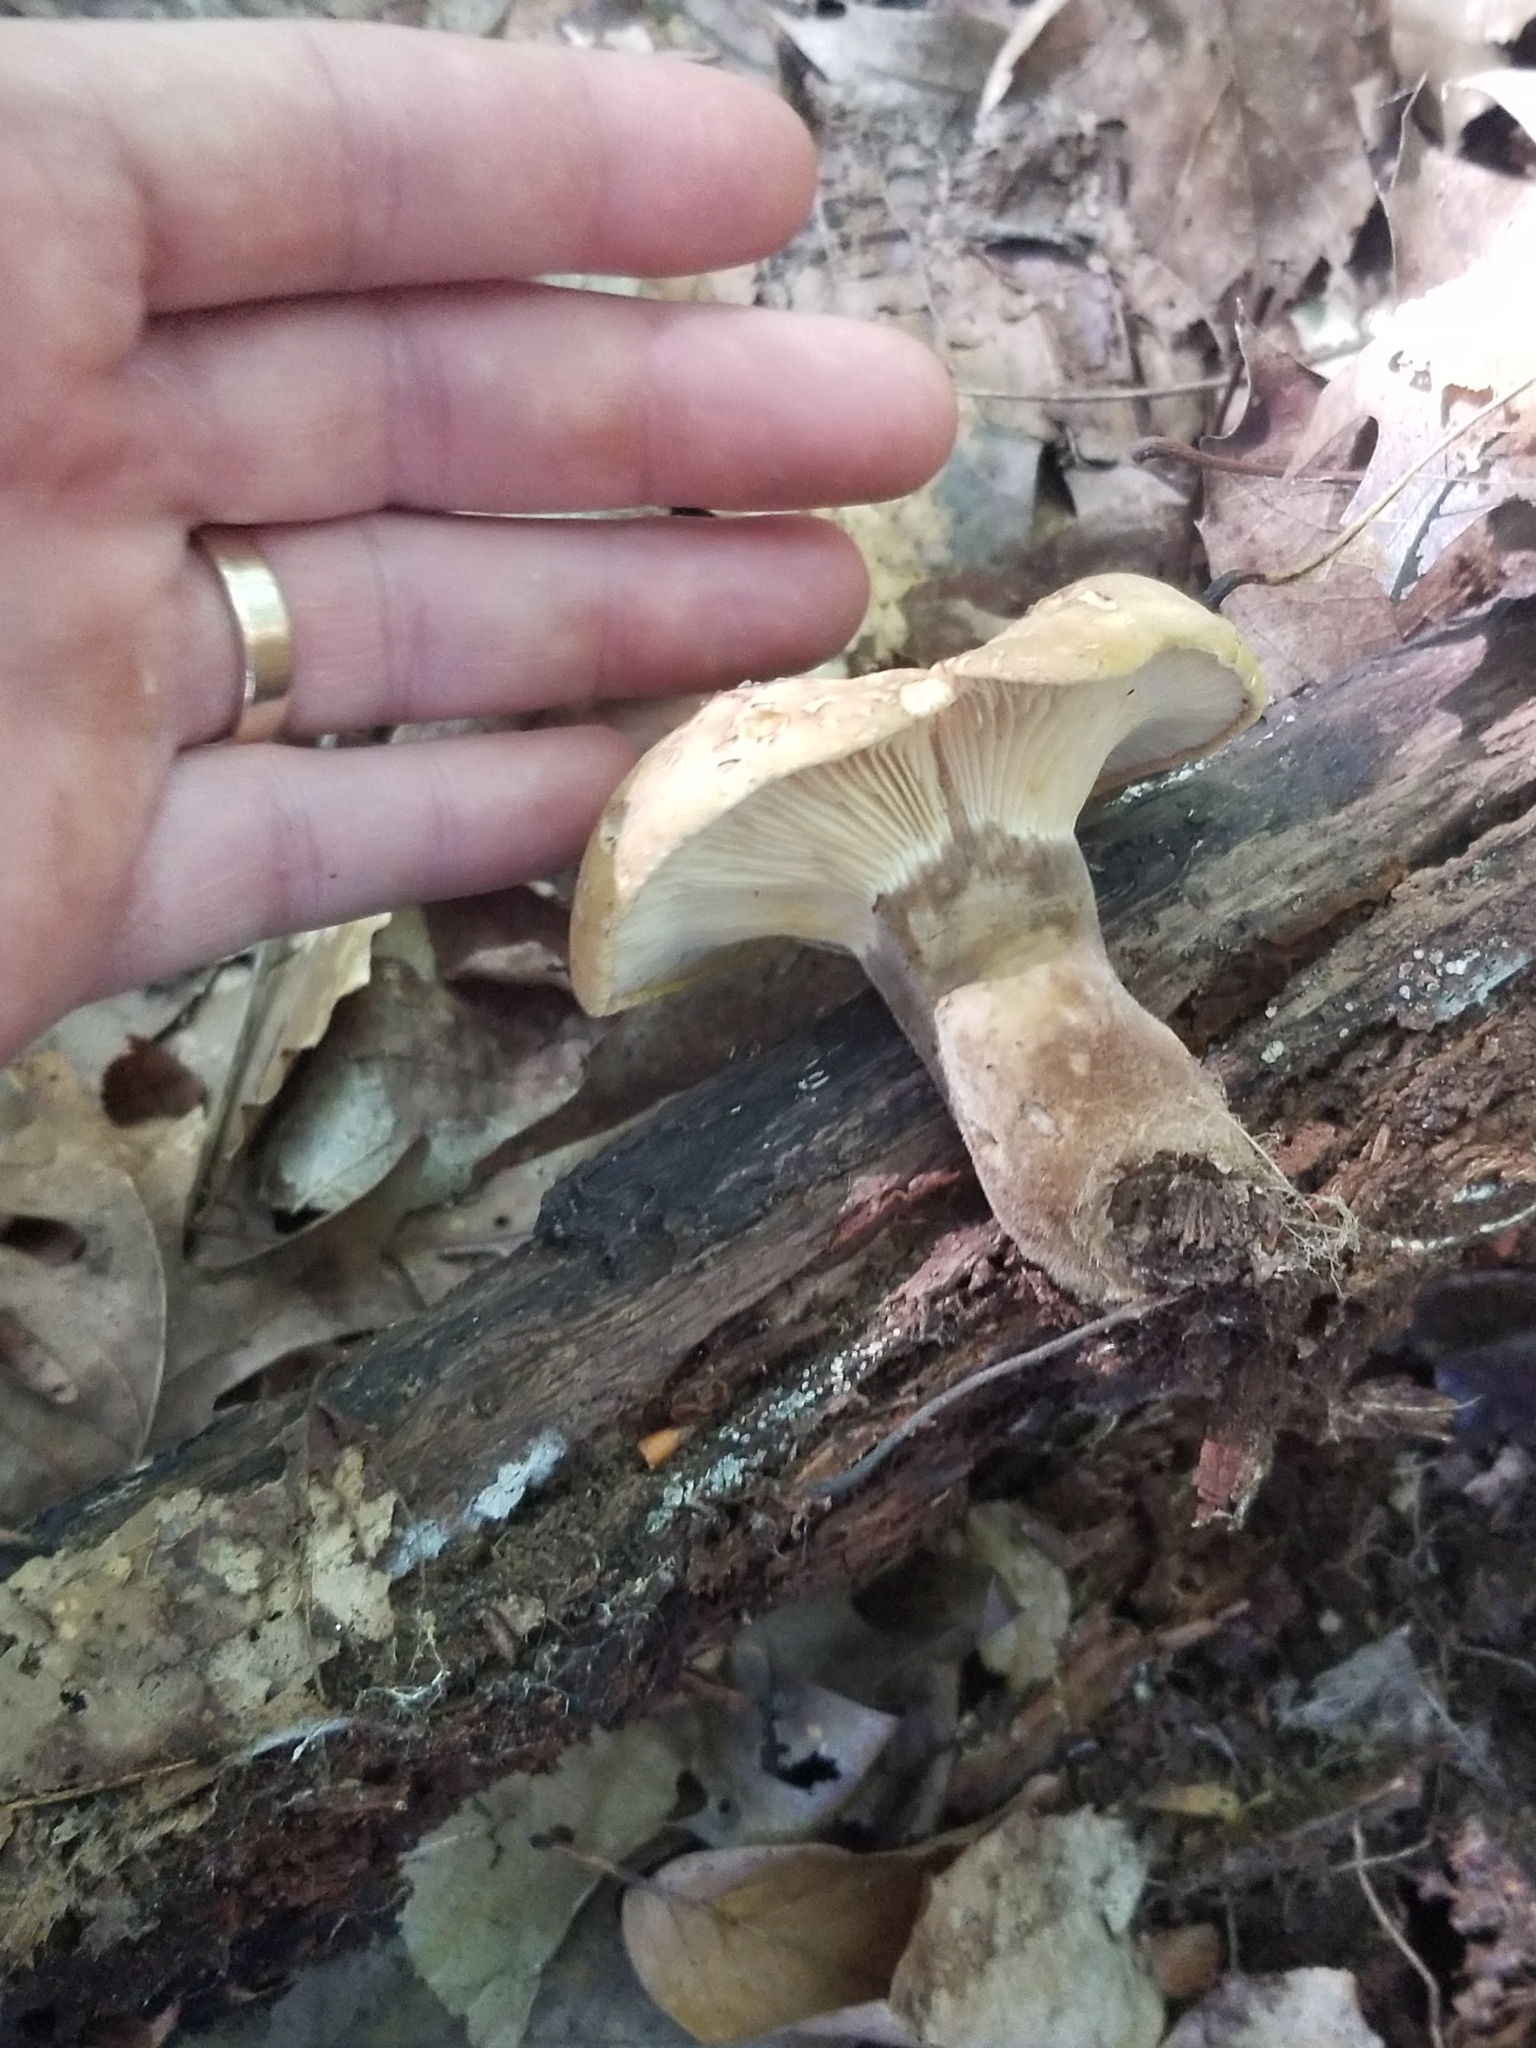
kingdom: Fungi
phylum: Basidiomycota
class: Agaricomycetes
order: Boletales
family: Tapinellaceae
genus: Tapinella
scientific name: Tapinella atrotomentosa
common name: Velvet rollrim
